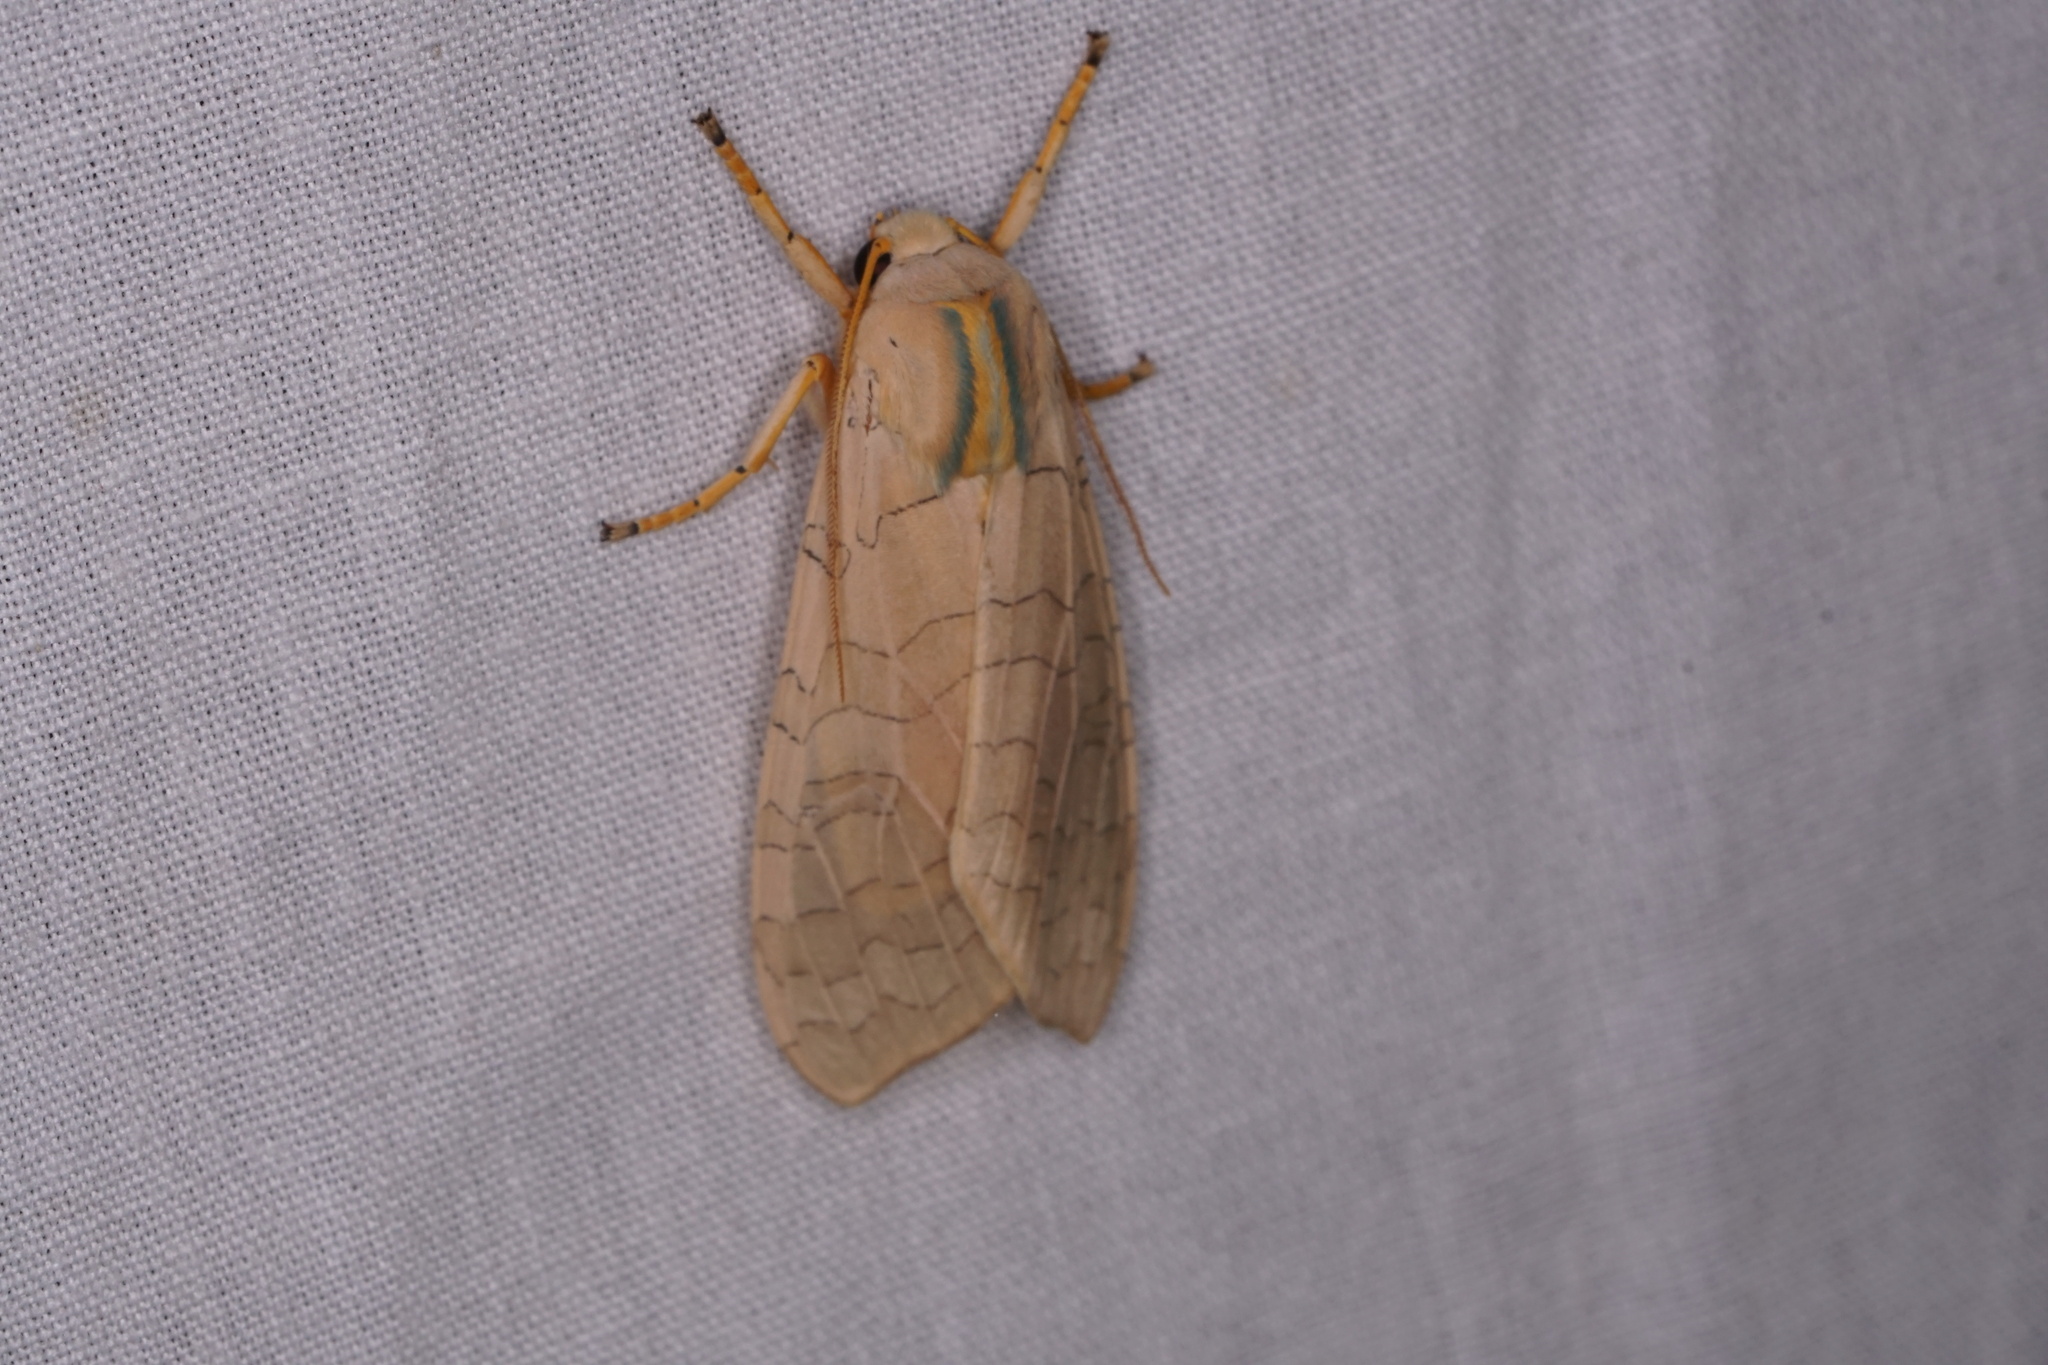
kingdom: Animalia
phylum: Arthropoda
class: Insecta
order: Lepidoptera
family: Erebidae
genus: Halysidota
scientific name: Halysidota
